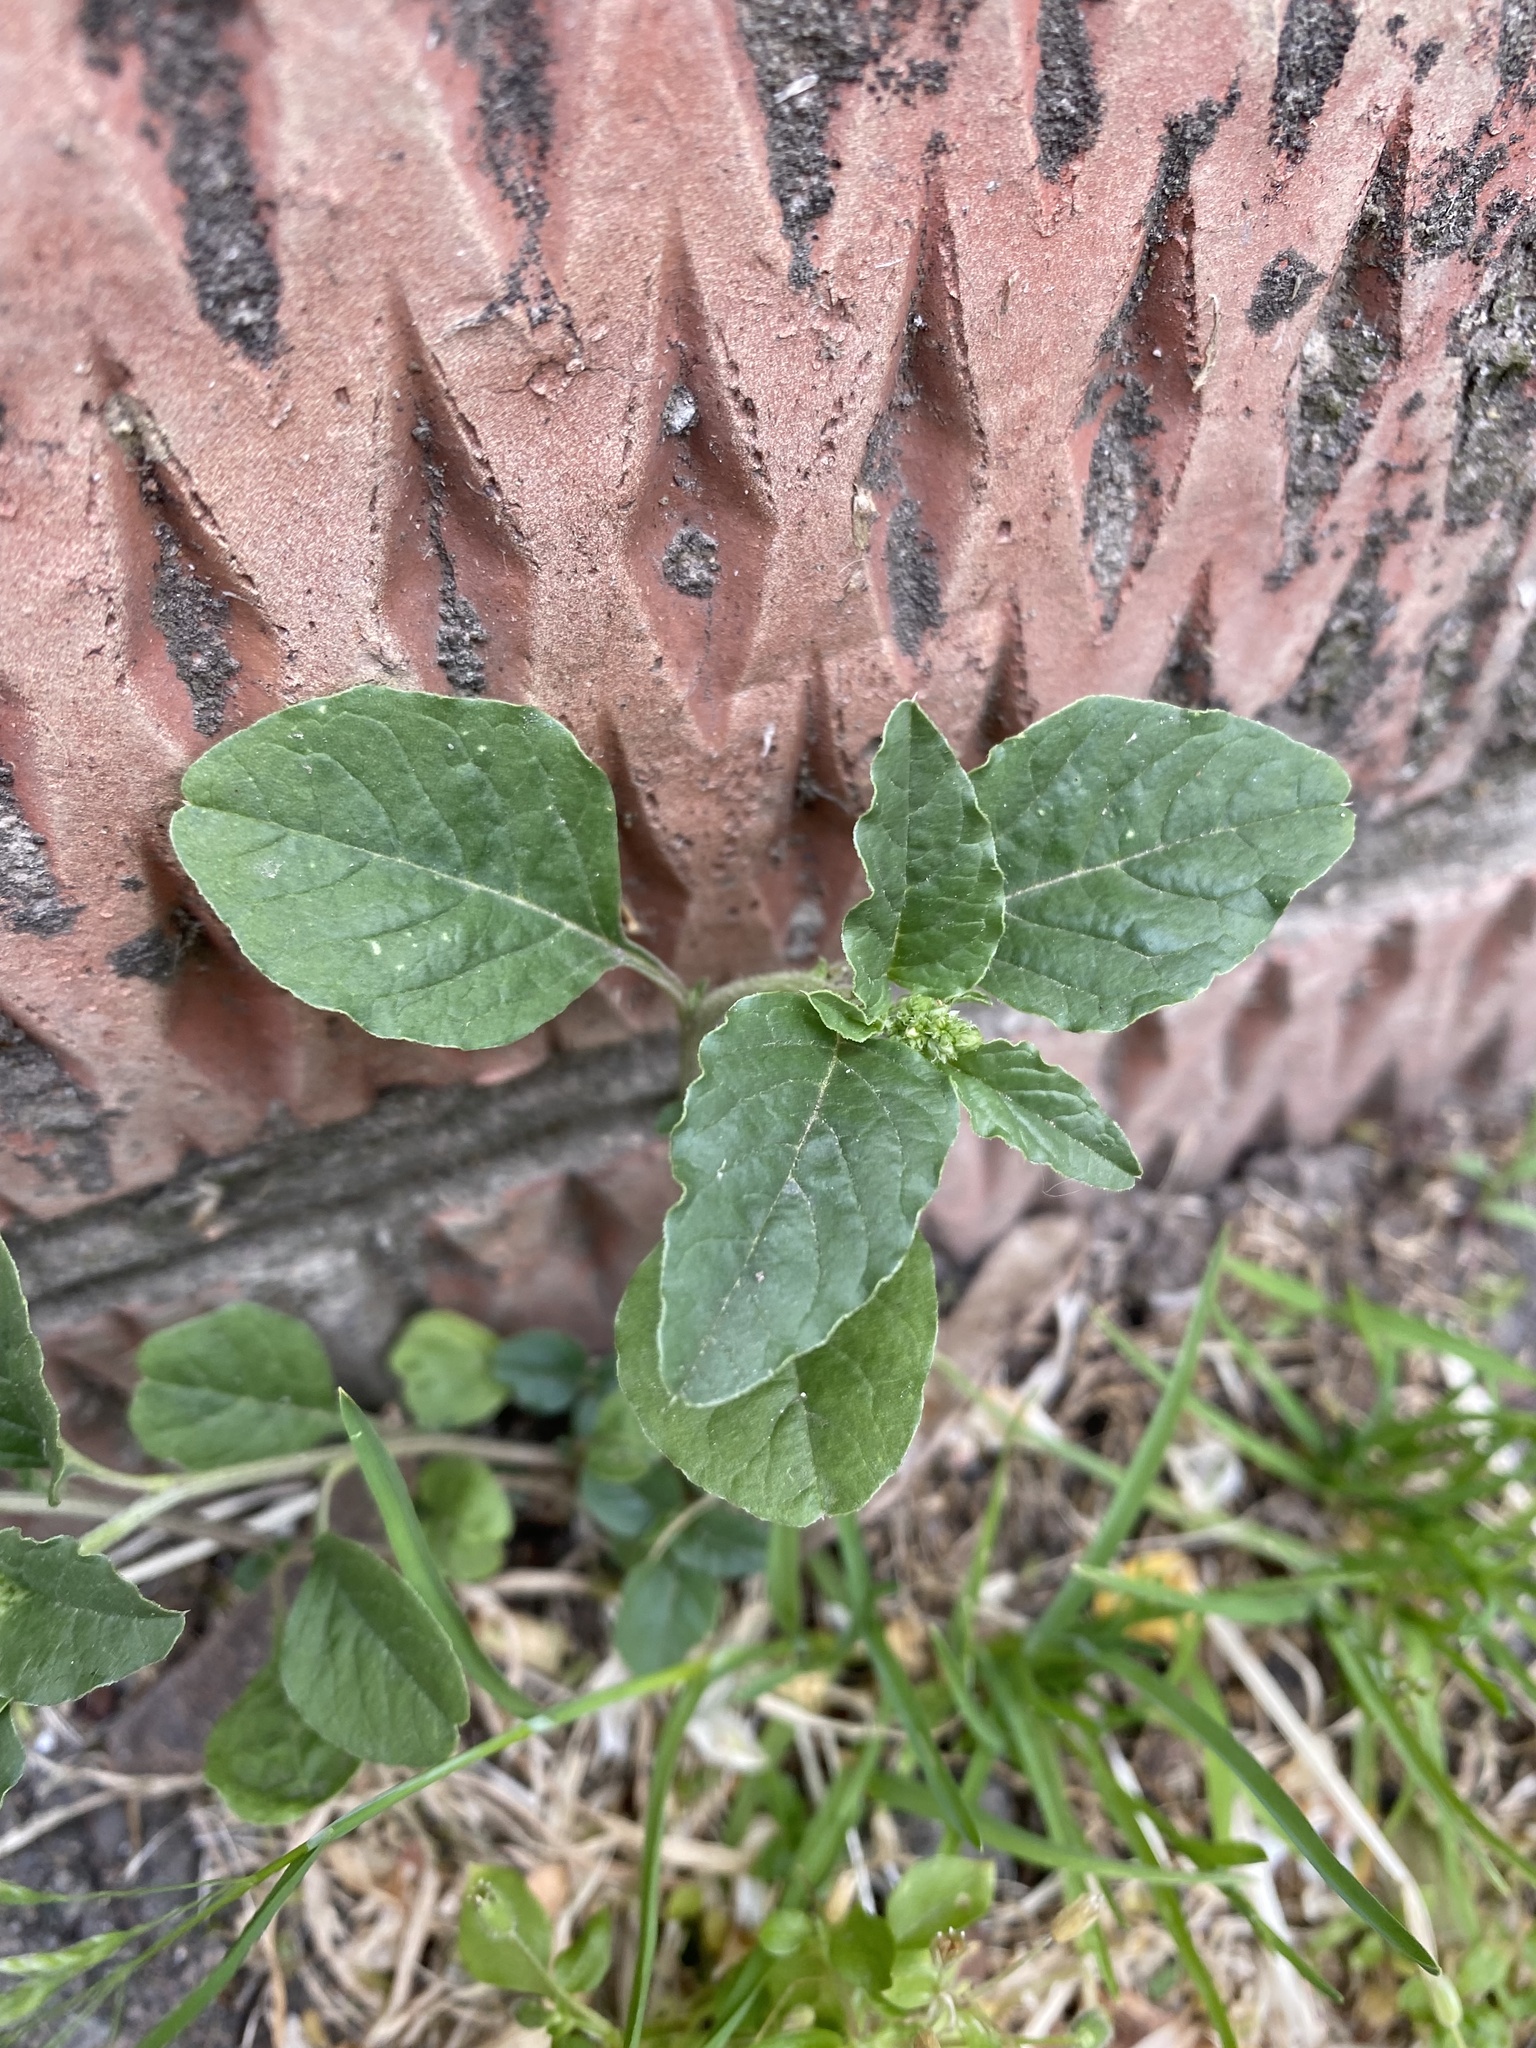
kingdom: Plantae
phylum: Tracheophyta
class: Magnoliopsida
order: Caryophyllales
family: Amaranthaceae
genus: Amaranthus
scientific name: Amaranthus retroflexus
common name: Redroot amaranth
